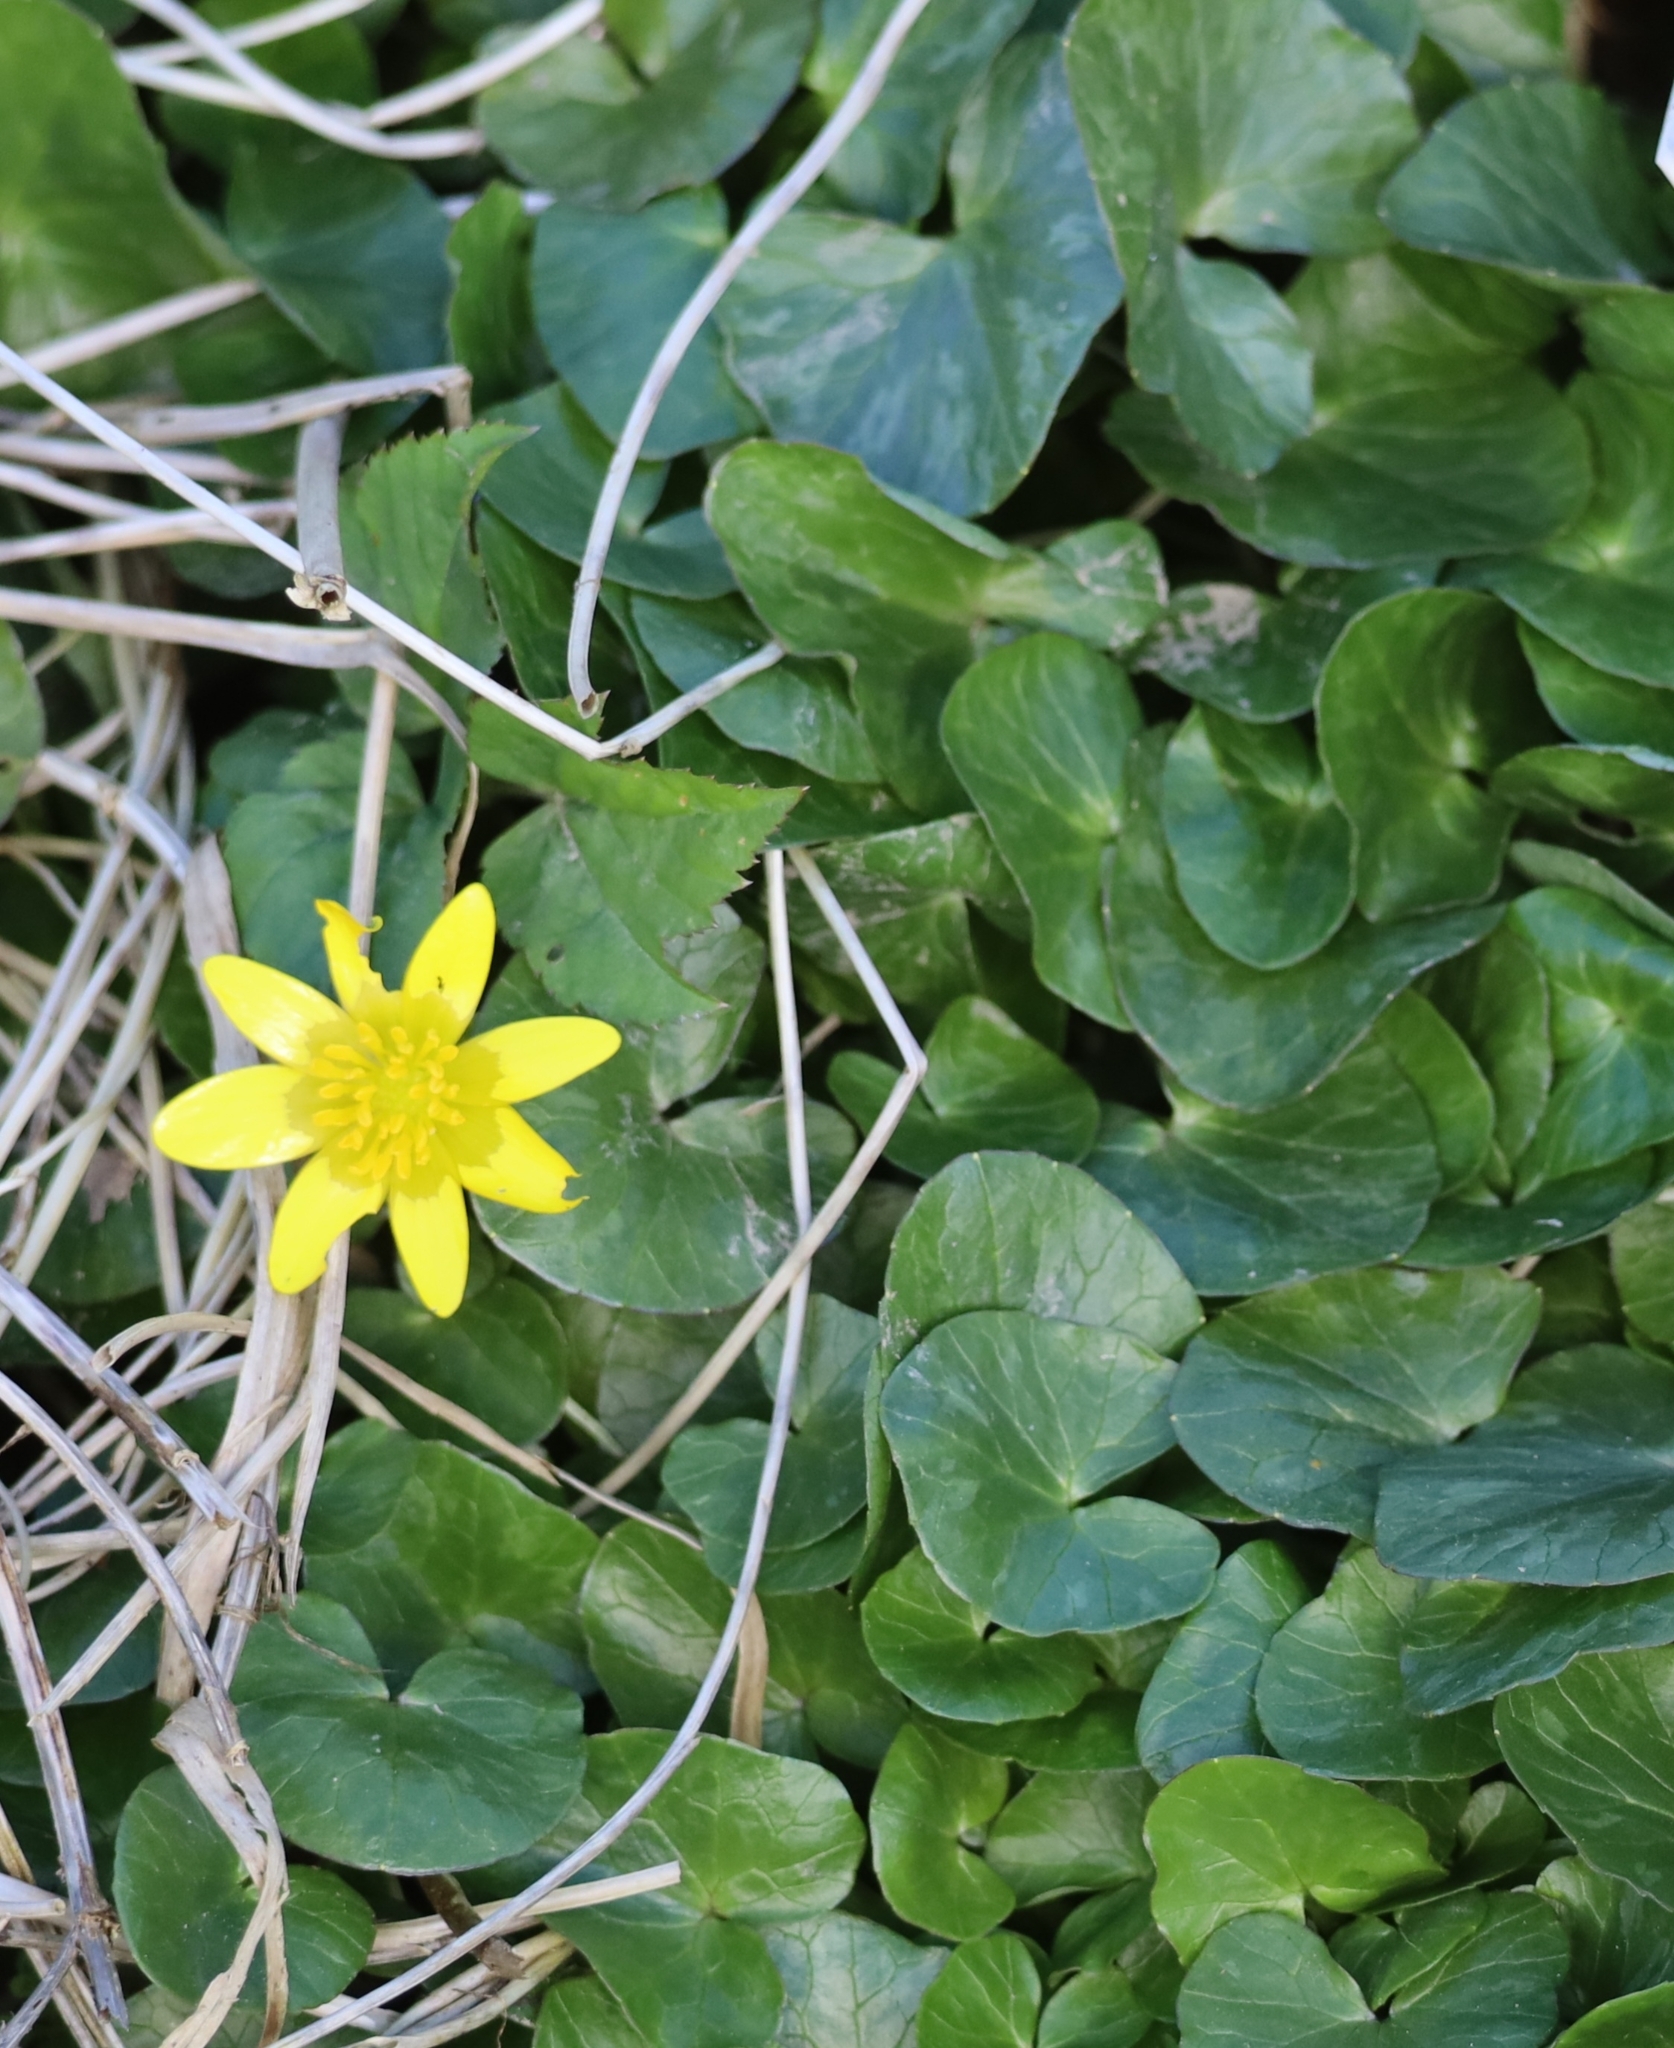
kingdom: Plantae
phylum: Tracheophyta
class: Magnoliopsida
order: Ranunculales
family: Ranunculaceae
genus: Ficaria
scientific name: Ficaria verna
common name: Lesser celandine
